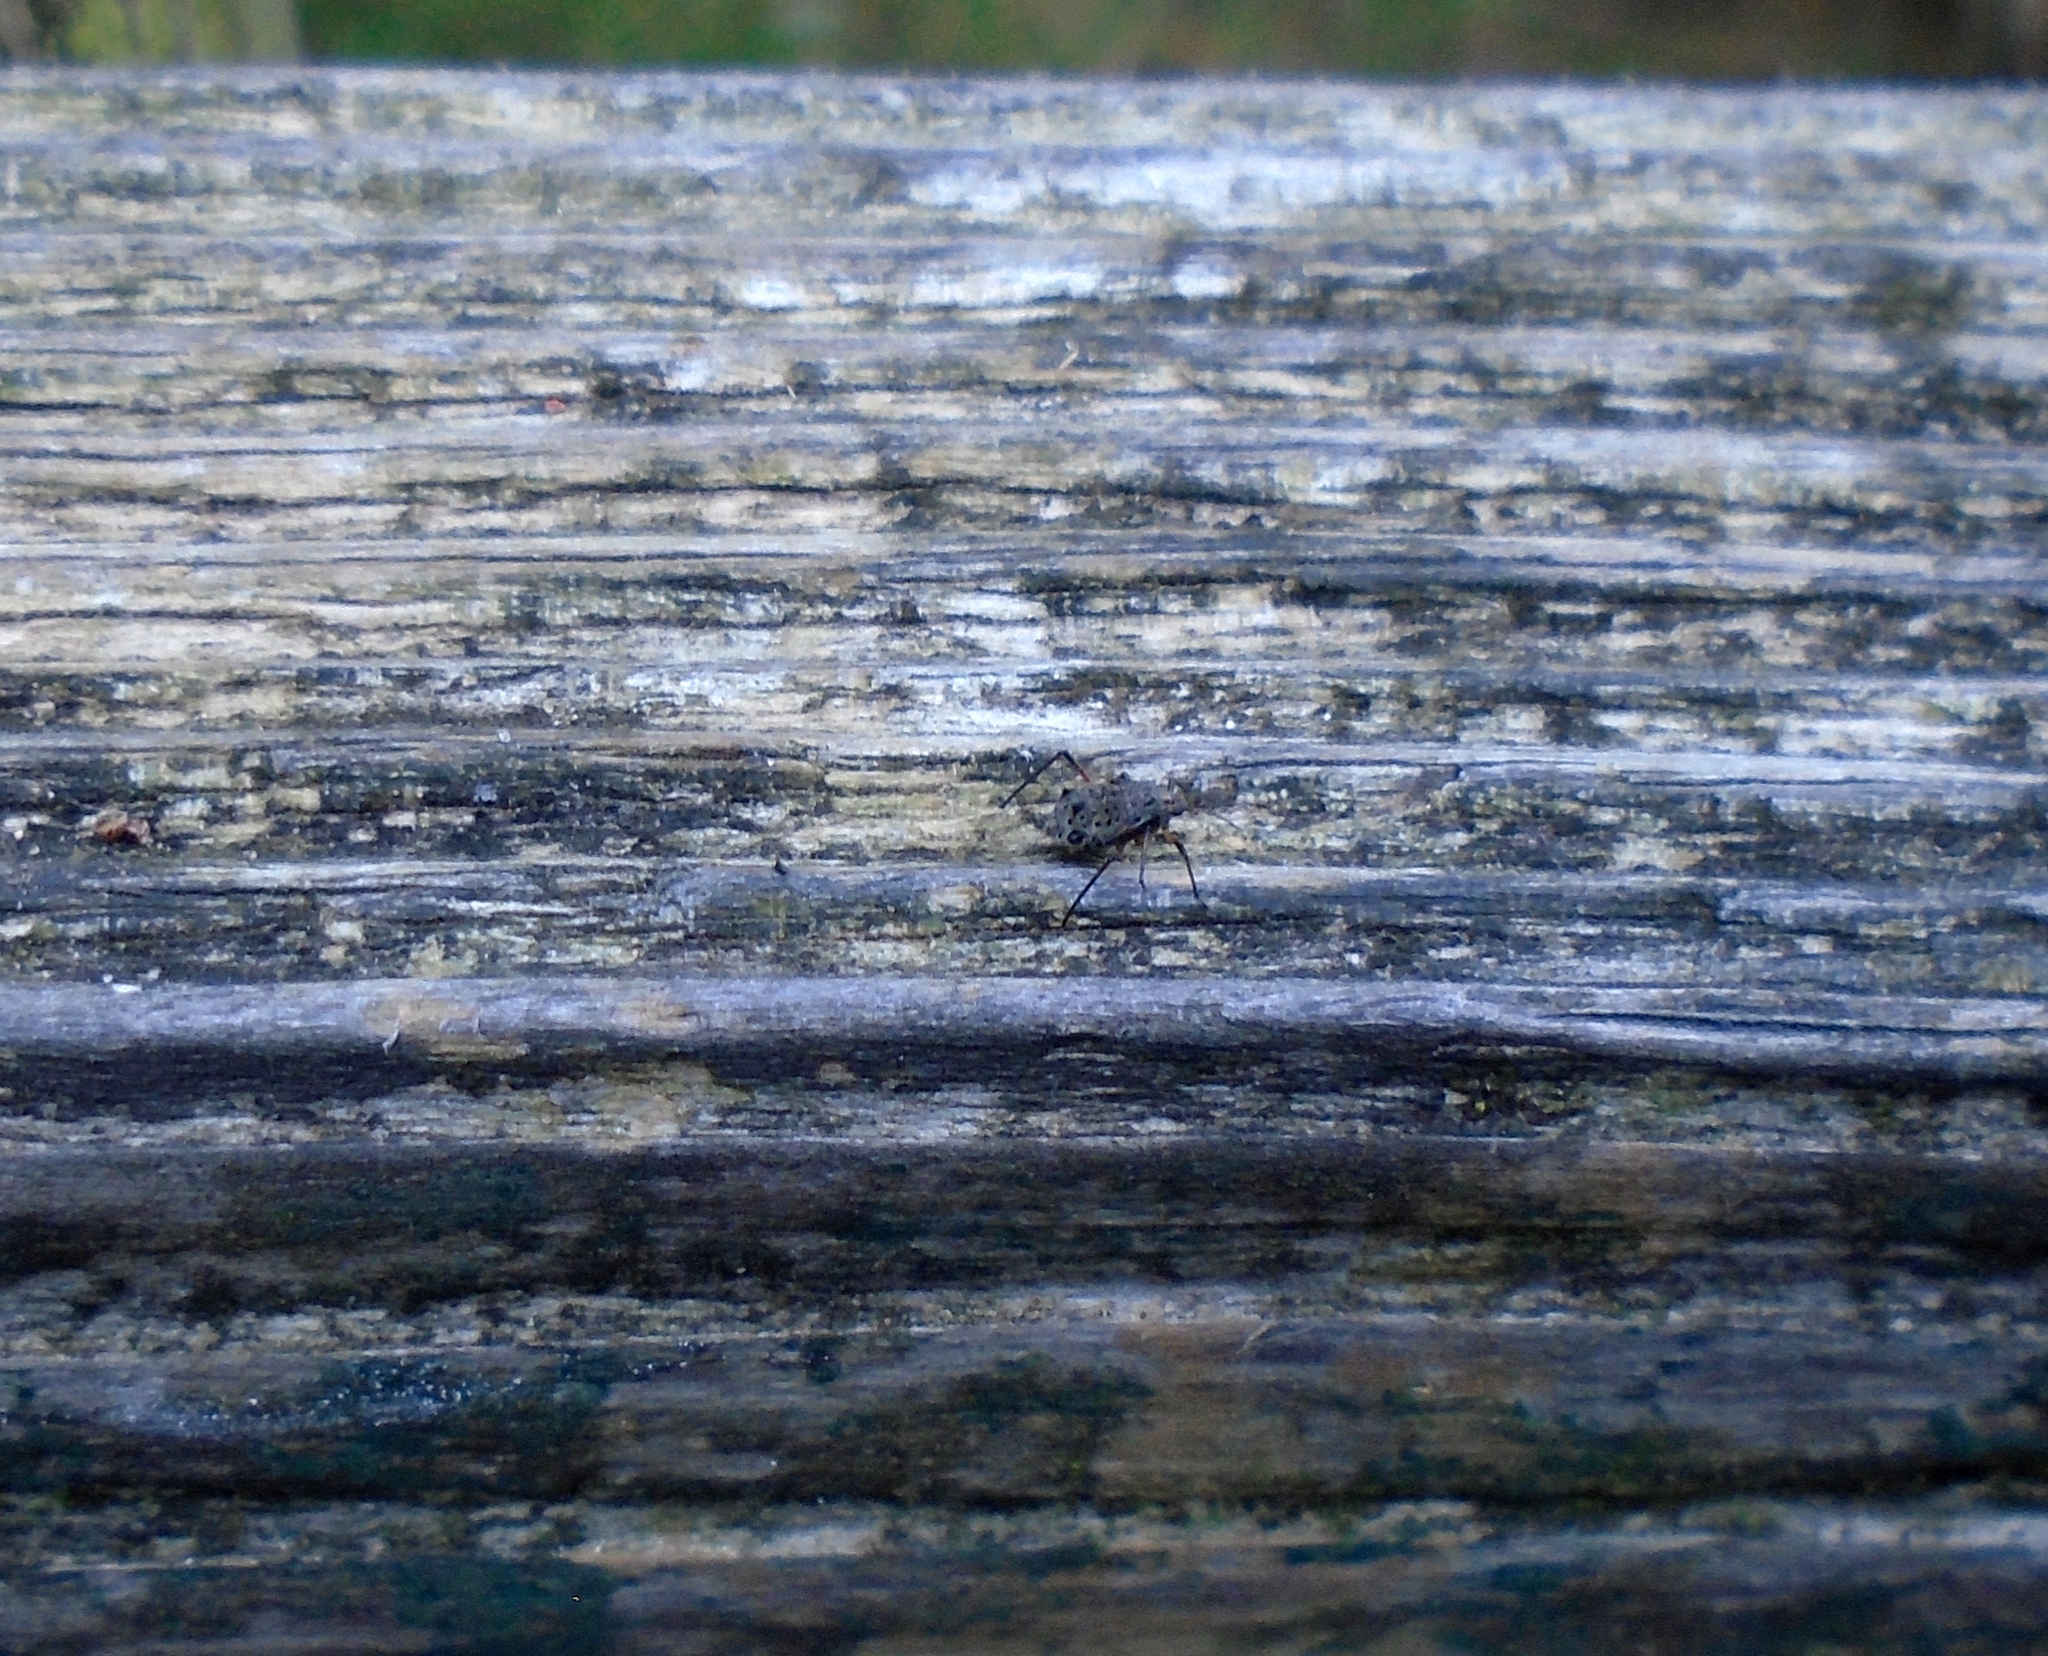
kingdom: Animalia
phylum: Arthropoda
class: Insecta
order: Hemiptera
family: Aphididae
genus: Tuberolachnus
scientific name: Tuberolachnus salignus
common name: Giant willow aphid
